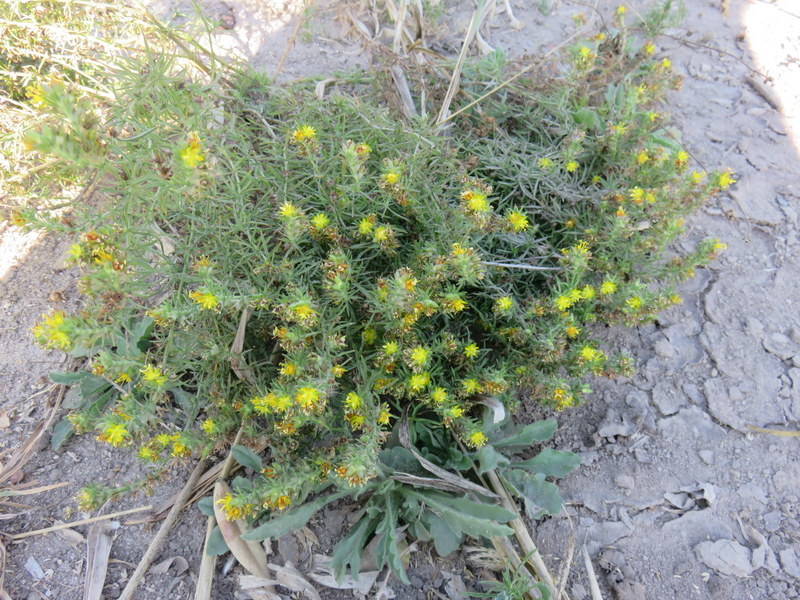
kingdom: Plantae
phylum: Tracheophyta
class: Magnoliopsida
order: Vahliales
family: Vahliaceae
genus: Vahlia
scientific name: Vahlia capensis
